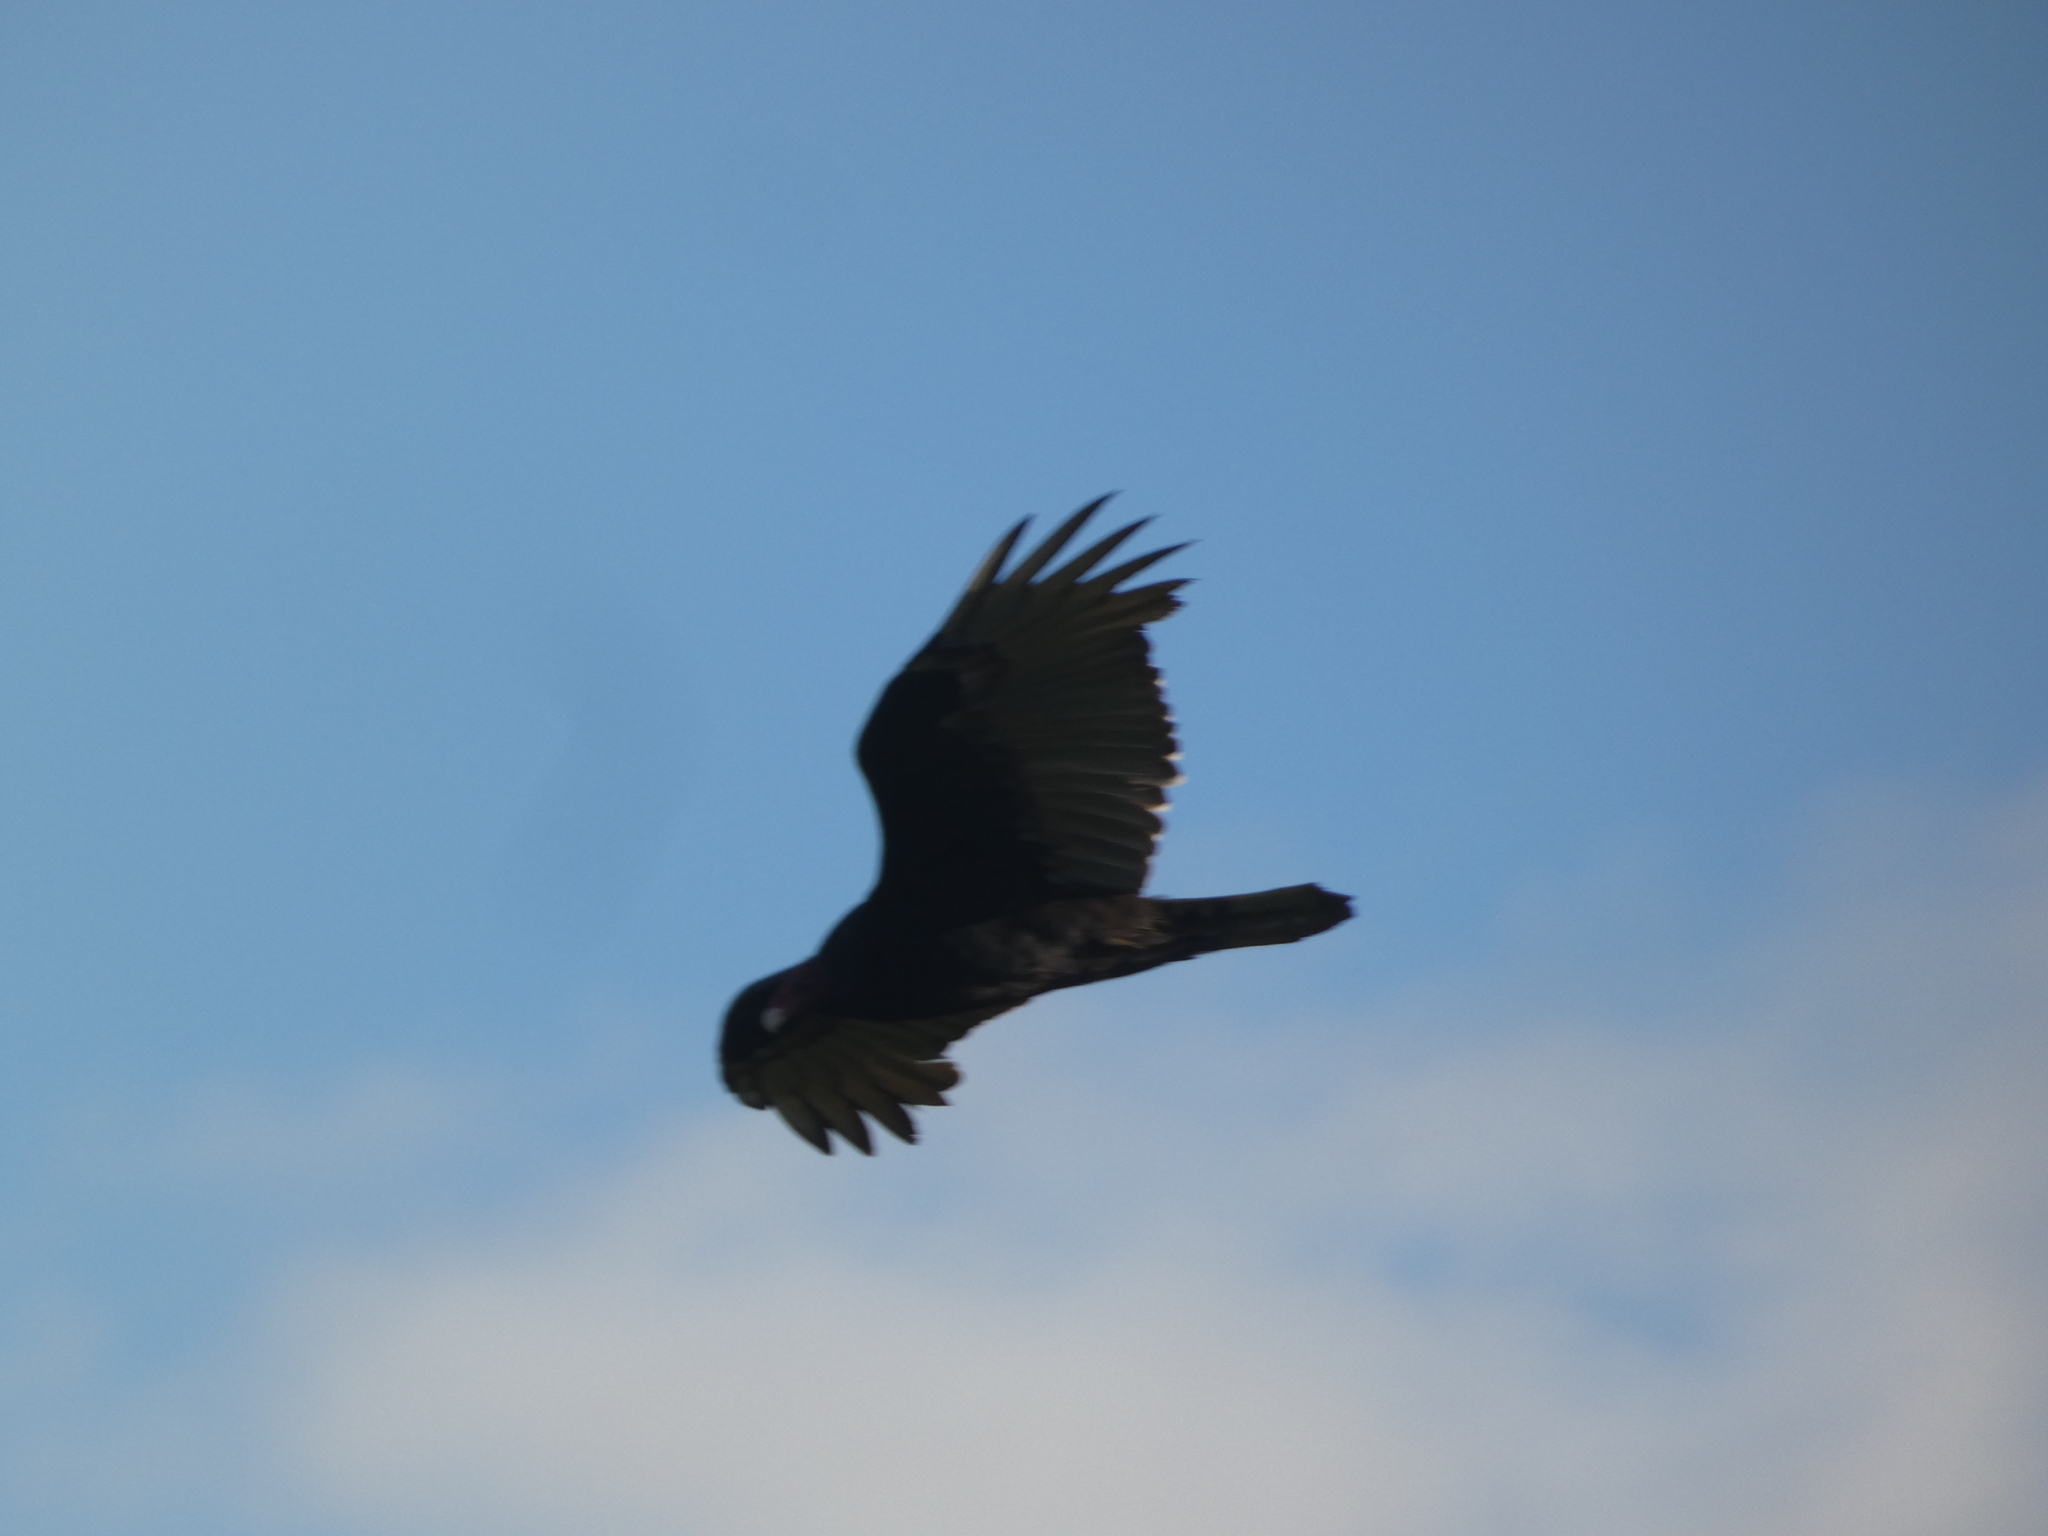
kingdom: Animalia
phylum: Chordata
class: Aves
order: Accipitriformes
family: Cathartidae
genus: Cathartes
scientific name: Cathartes aura
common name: Turkey vulture
